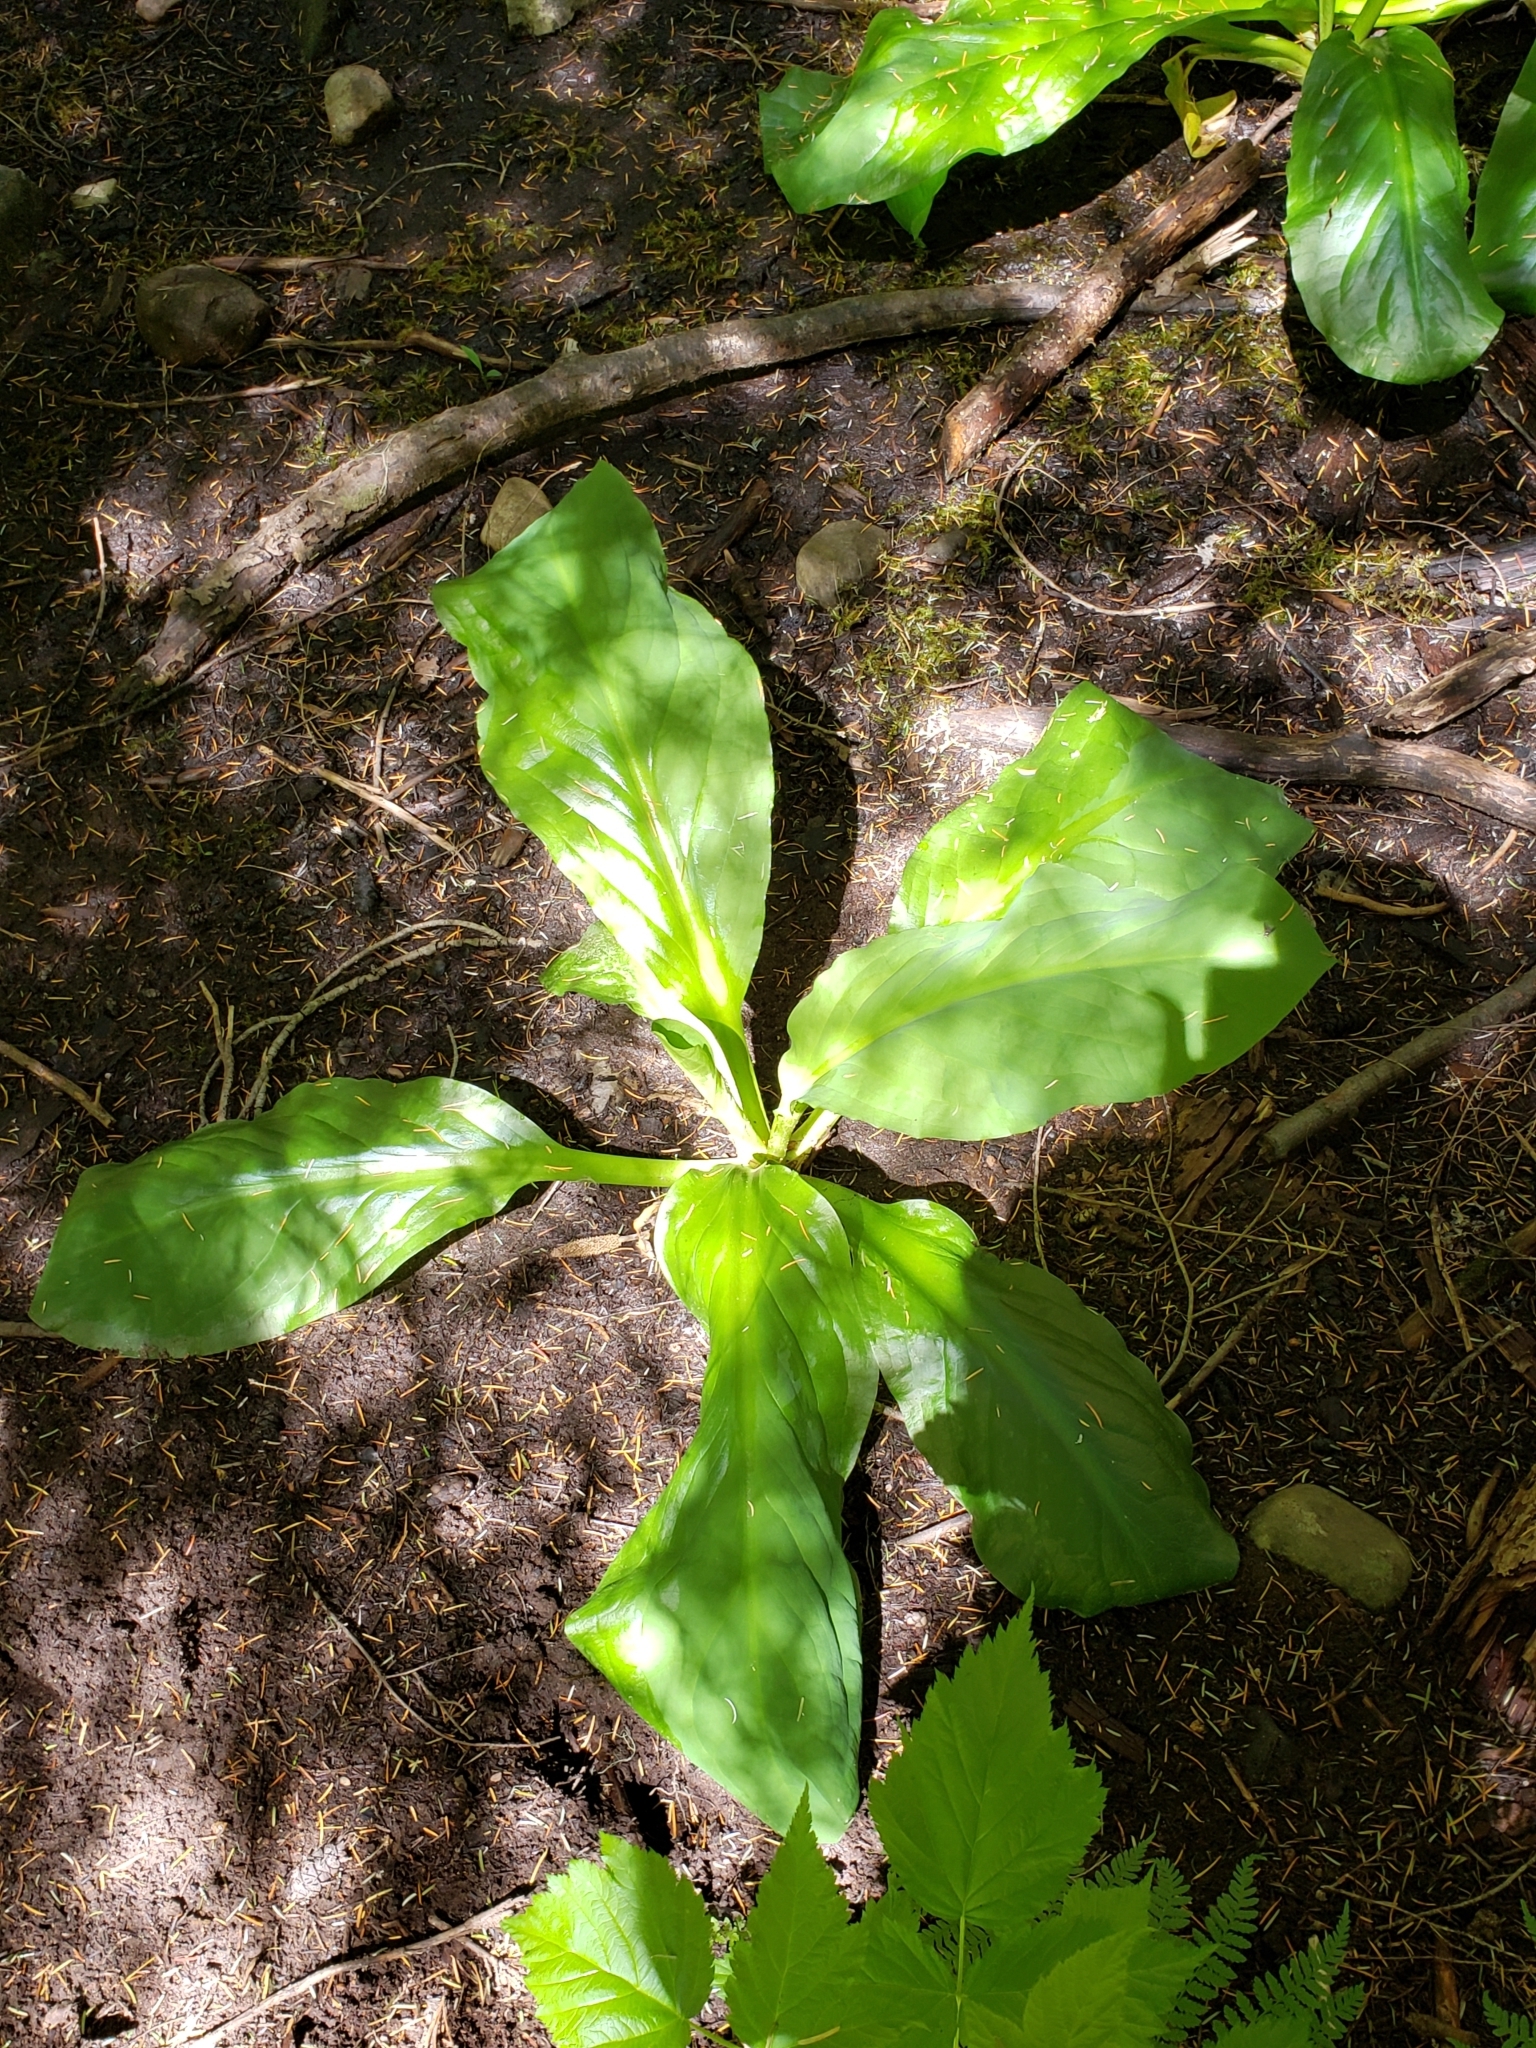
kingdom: Plantae
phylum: Tracheophyta
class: Liliopsida
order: Alismatales
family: Araceae
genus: Lysichiton
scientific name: Lysichiton americanus
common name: American skunk cabbage
